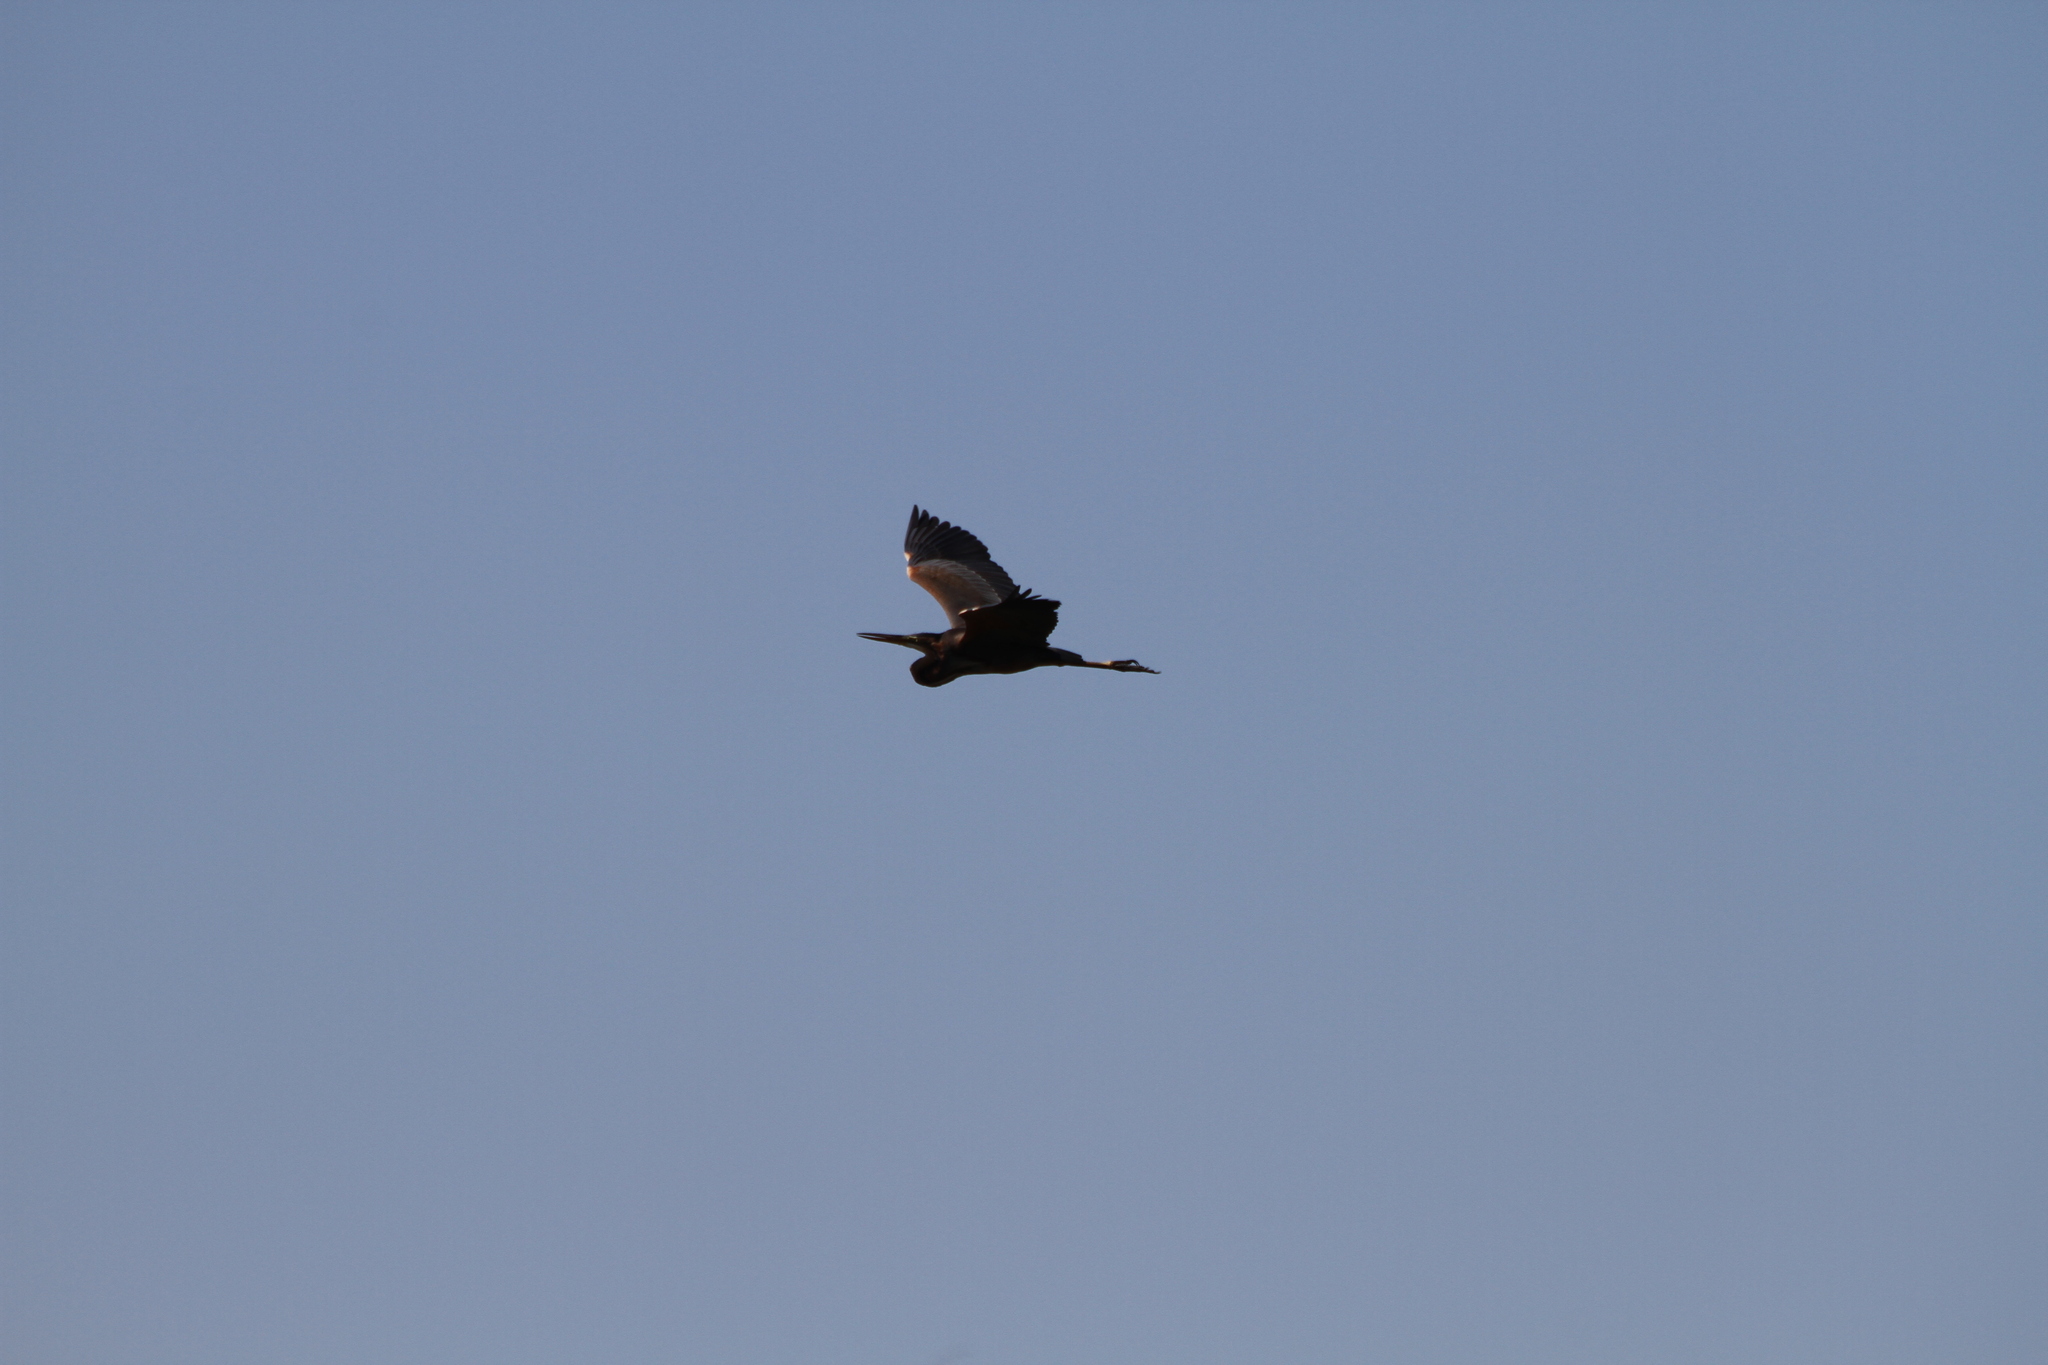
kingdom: Animalia
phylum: Chordata
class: Aves
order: Pelecaniformes
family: Ardeidae
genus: Ardea
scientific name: Ardea purpurea
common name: Purple heron
